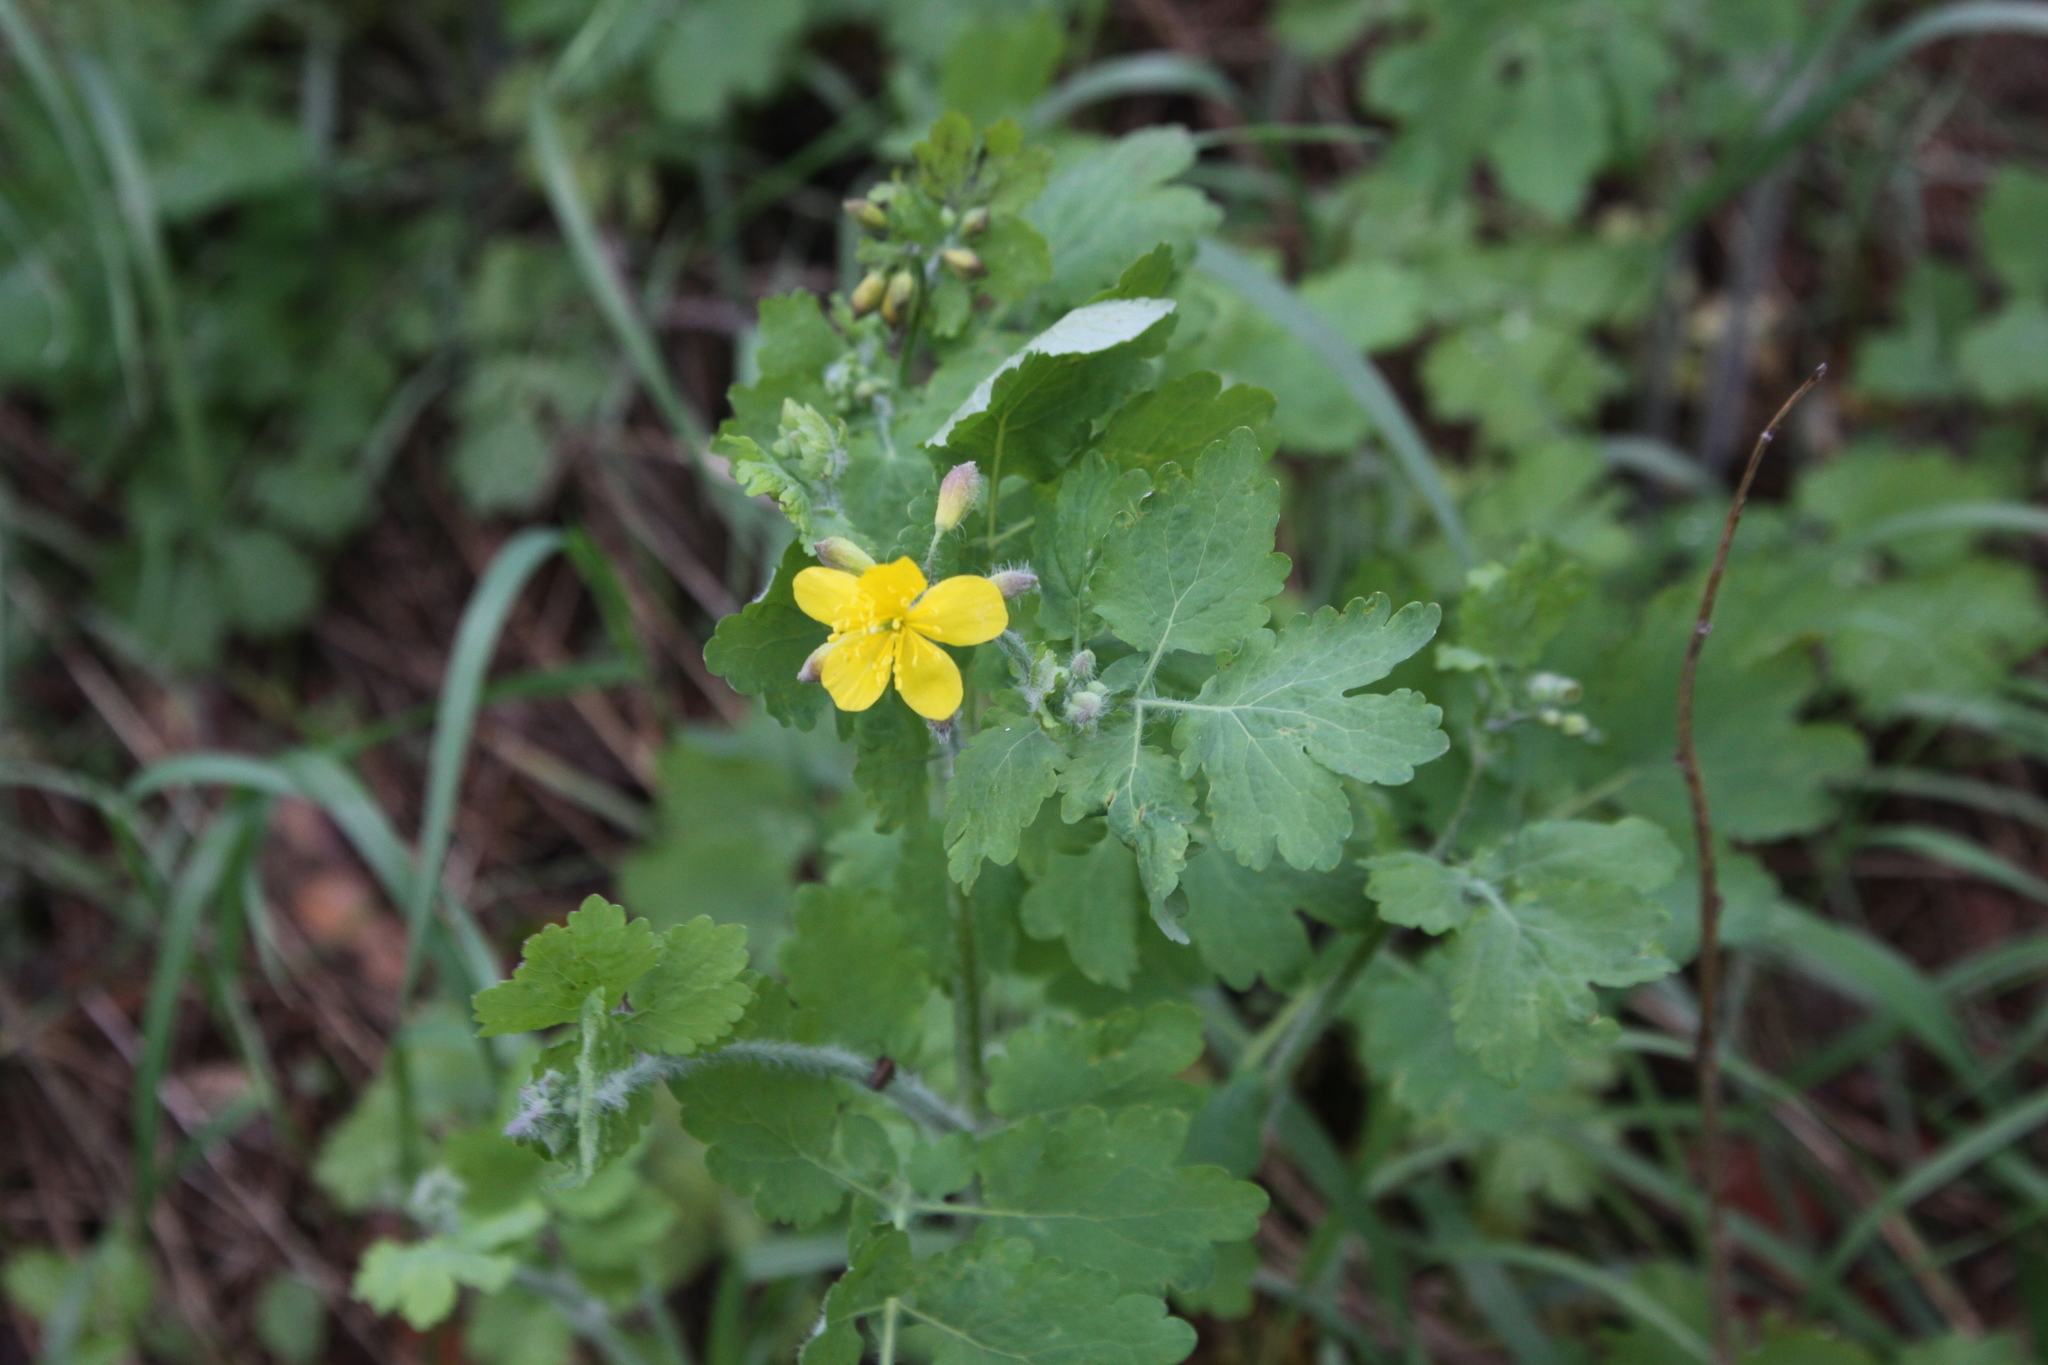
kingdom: Plantae
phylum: Tracheophyta
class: Magnoliopsida
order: Ranunculales
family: Papaveraceae
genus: Chelidonium
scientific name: Chelidonium majus
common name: Greater celandine
